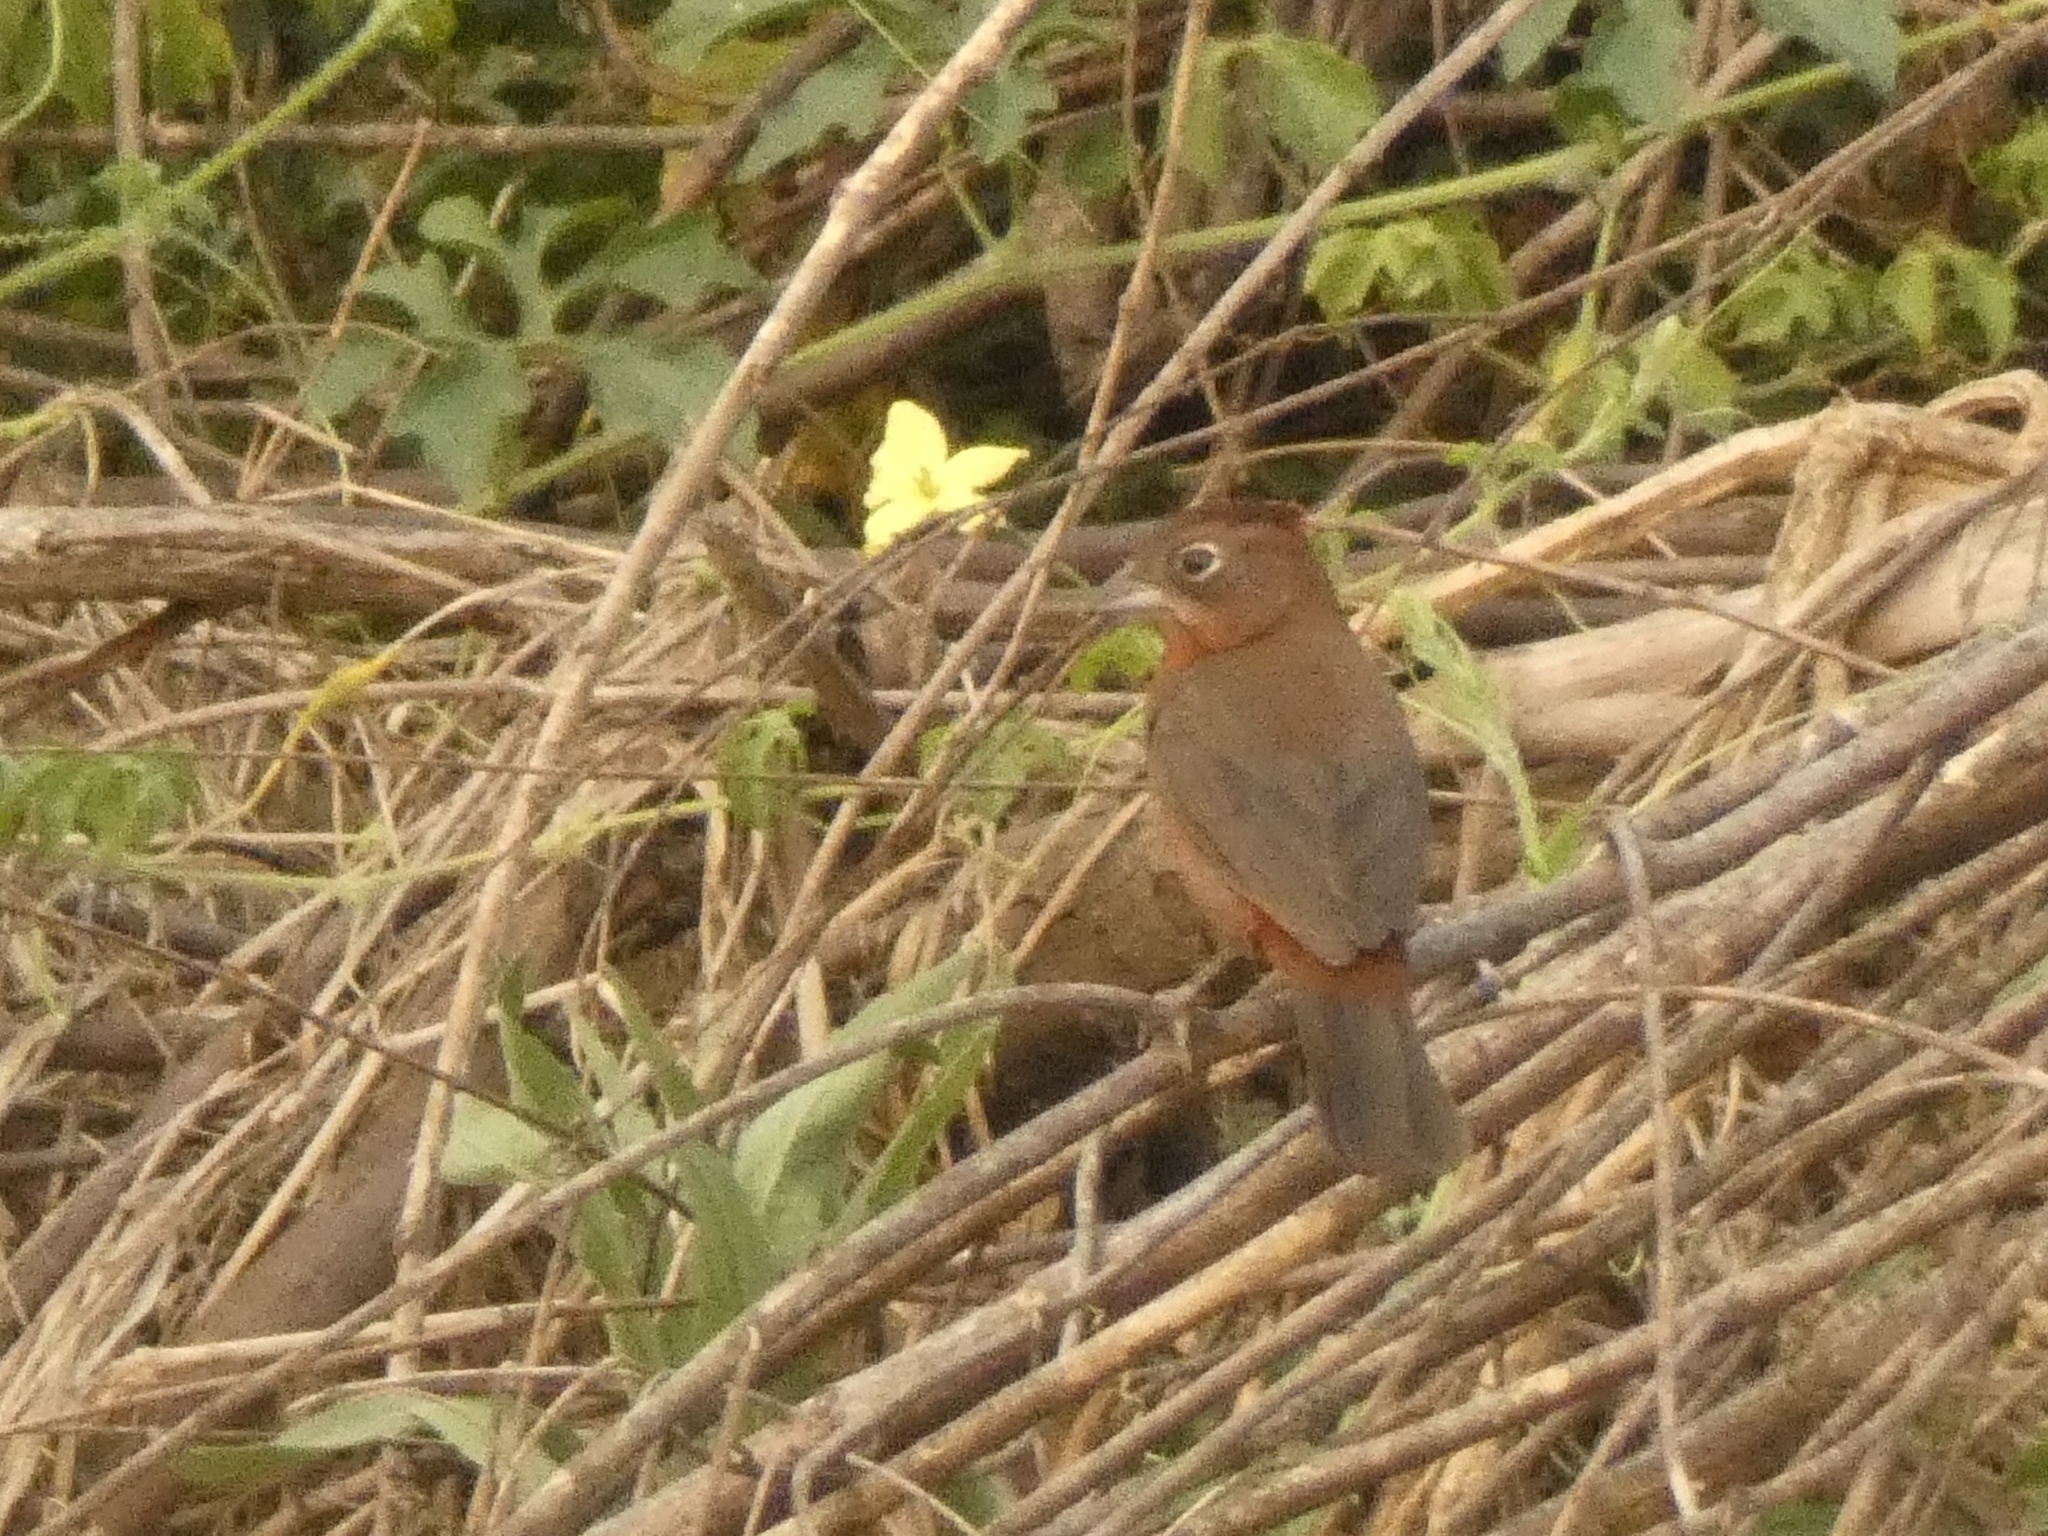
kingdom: Animalia
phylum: Chordata
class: Aves
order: Passeriformes
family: Thraupidae
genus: Coryphospingus
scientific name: Coryphospingus cucullatus
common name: Red pileated finch
